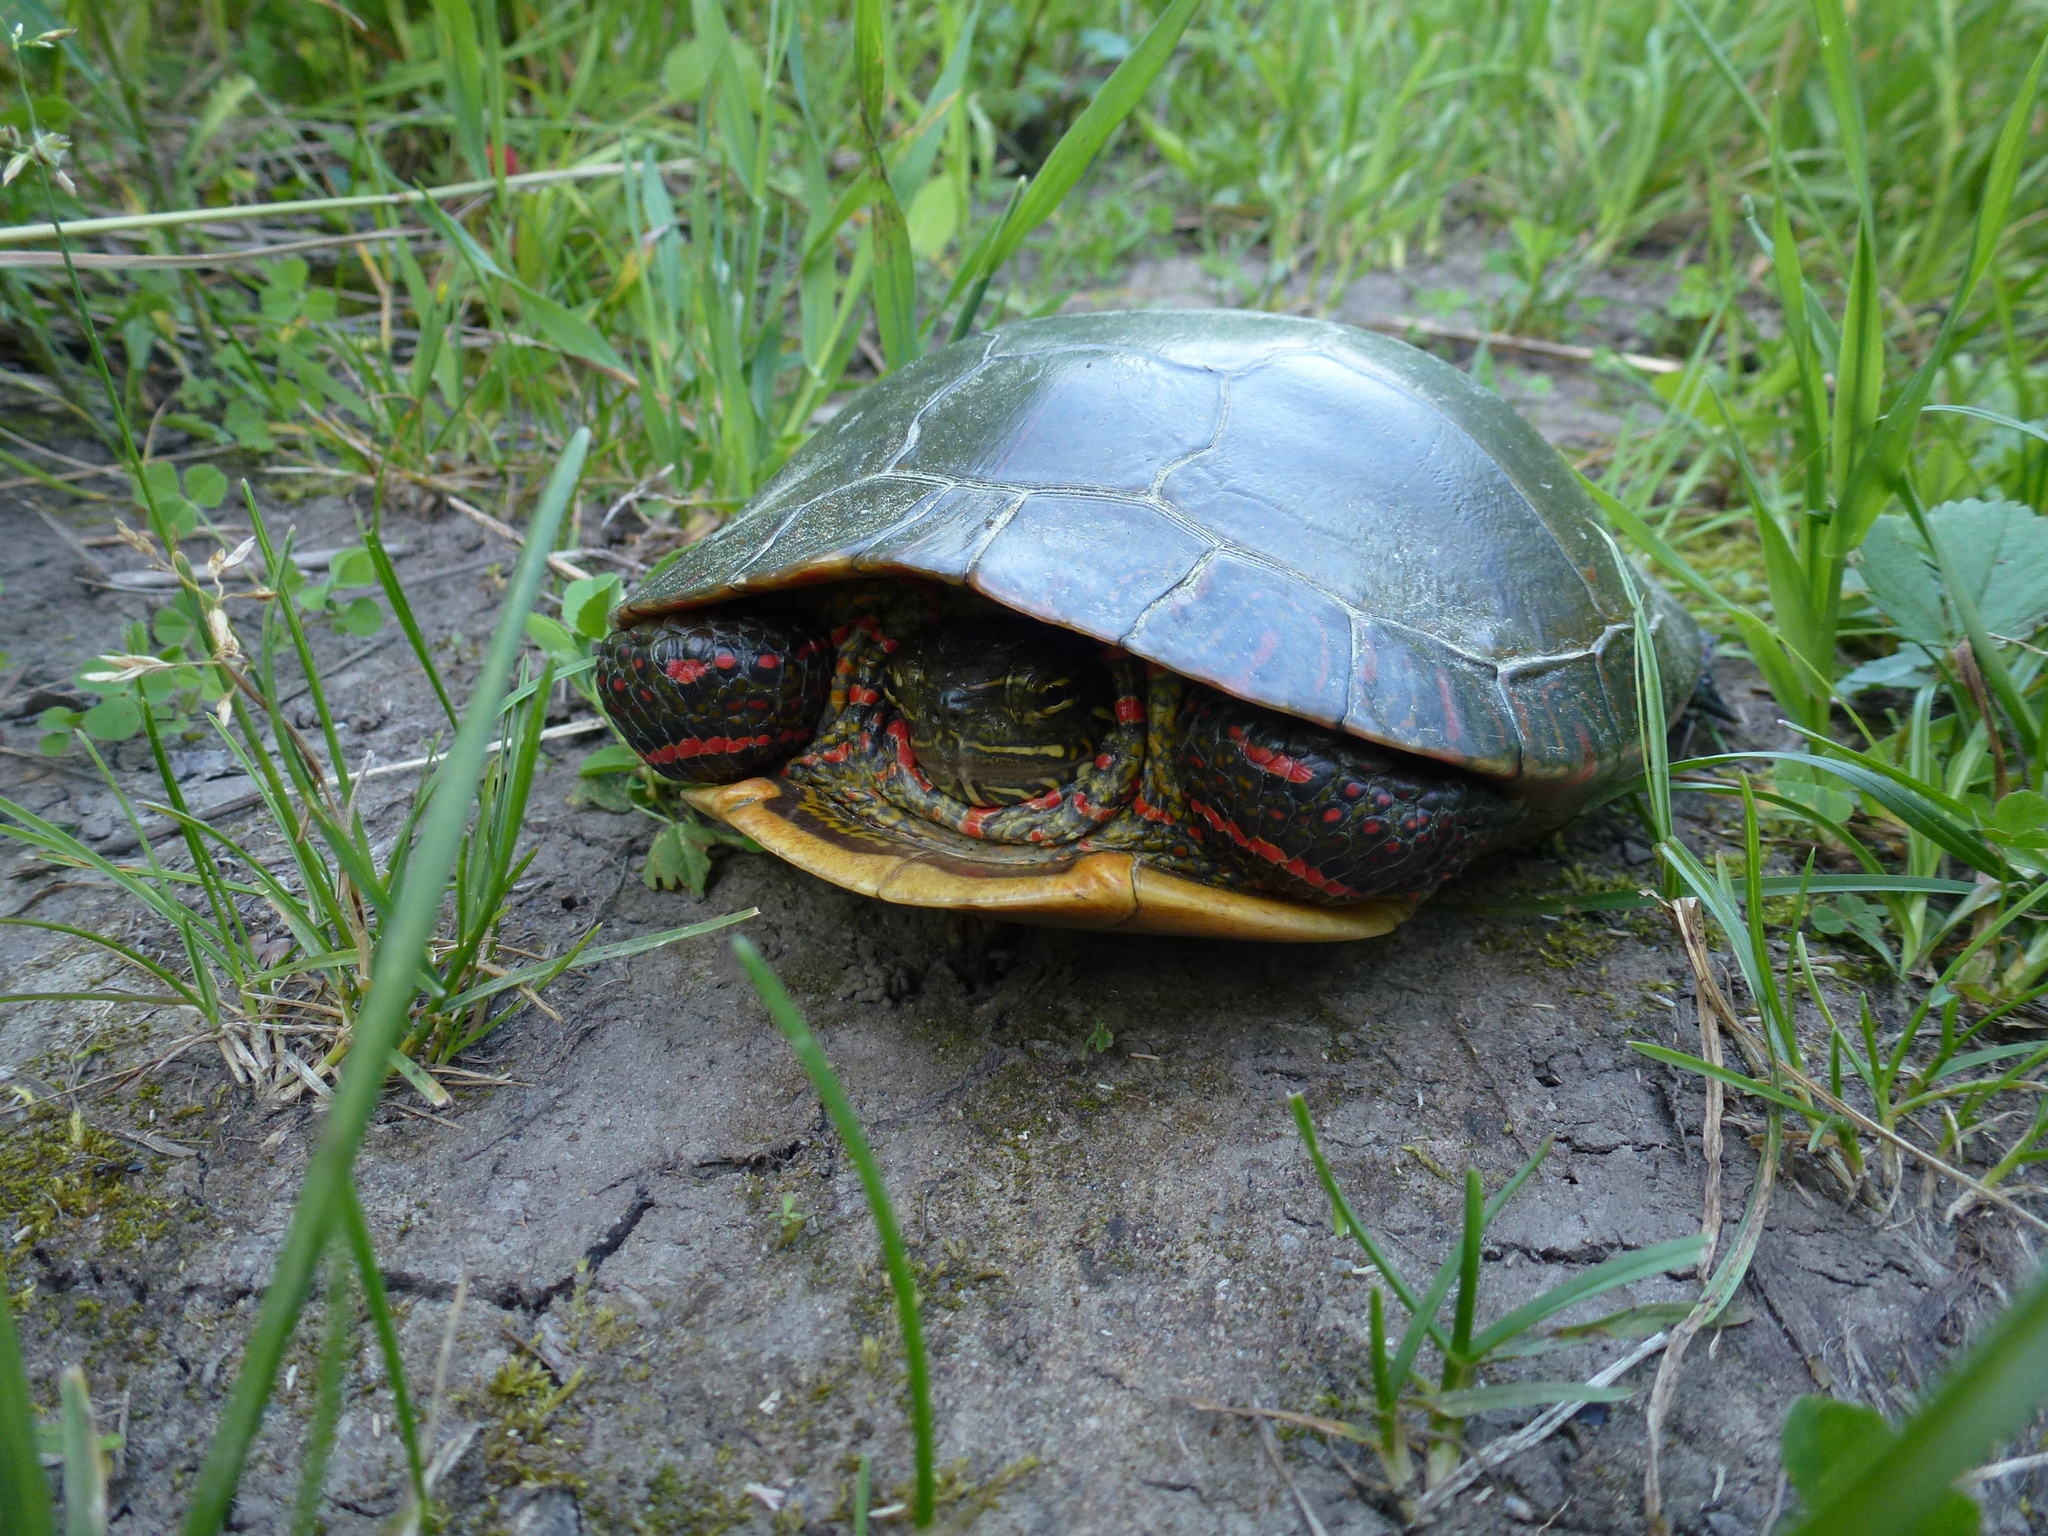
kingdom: Animalia
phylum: Chordata
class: Testudines
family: Emydidae
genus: Chrysemys
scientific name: Chrysemys picta
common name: Painted turtle
